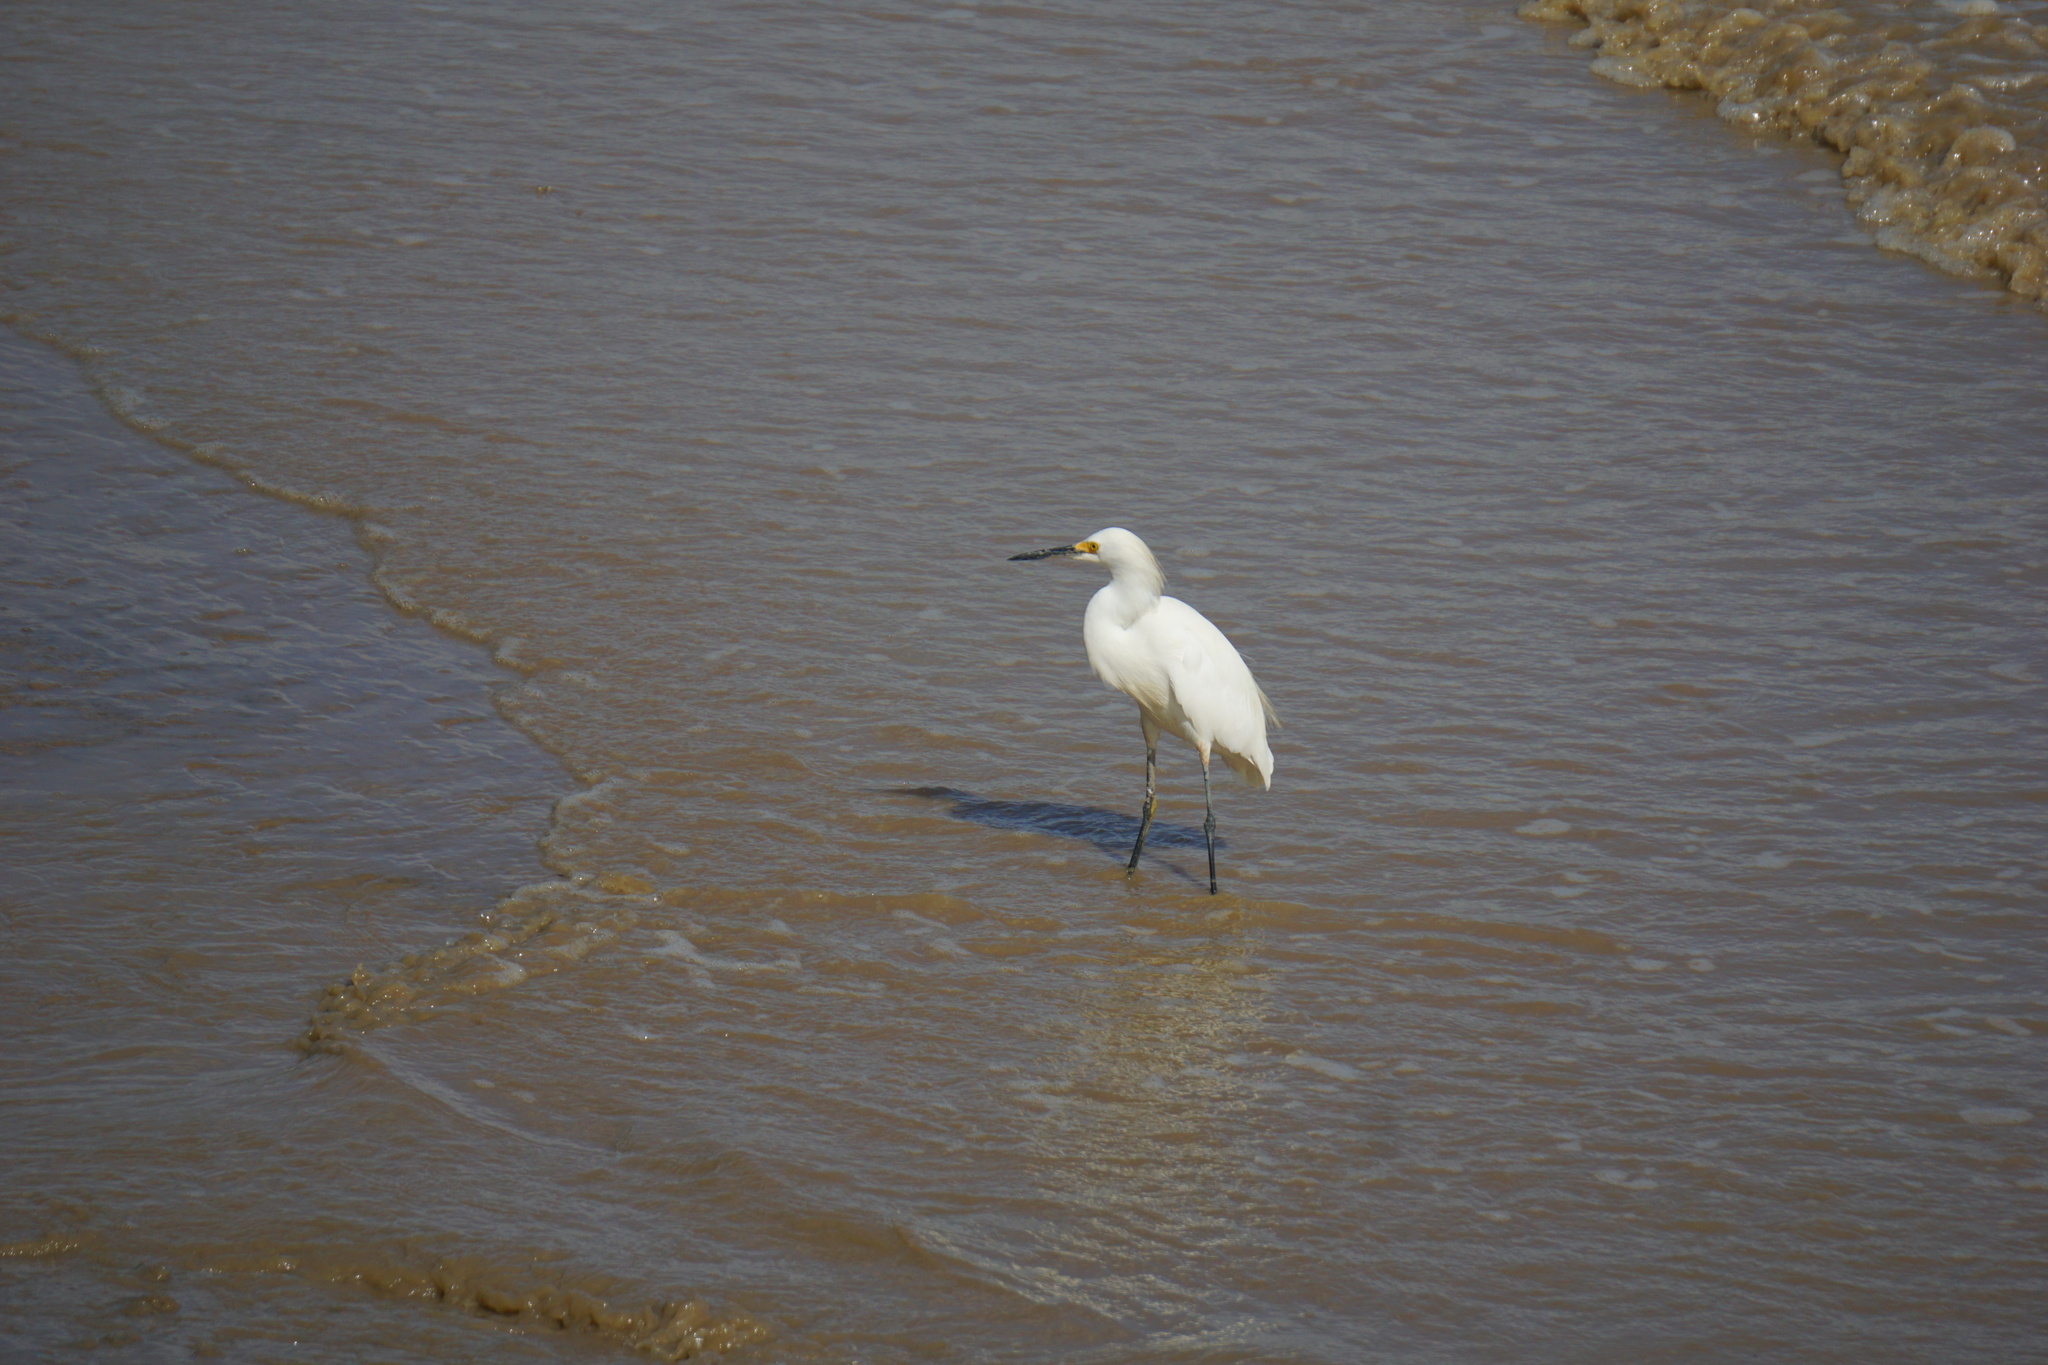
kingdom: Animalia
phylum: Chordata
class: Aves
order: Pelecaniformes
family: Ardeidae
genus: Egretta
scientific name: Egretta thula
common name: Snowy egret
